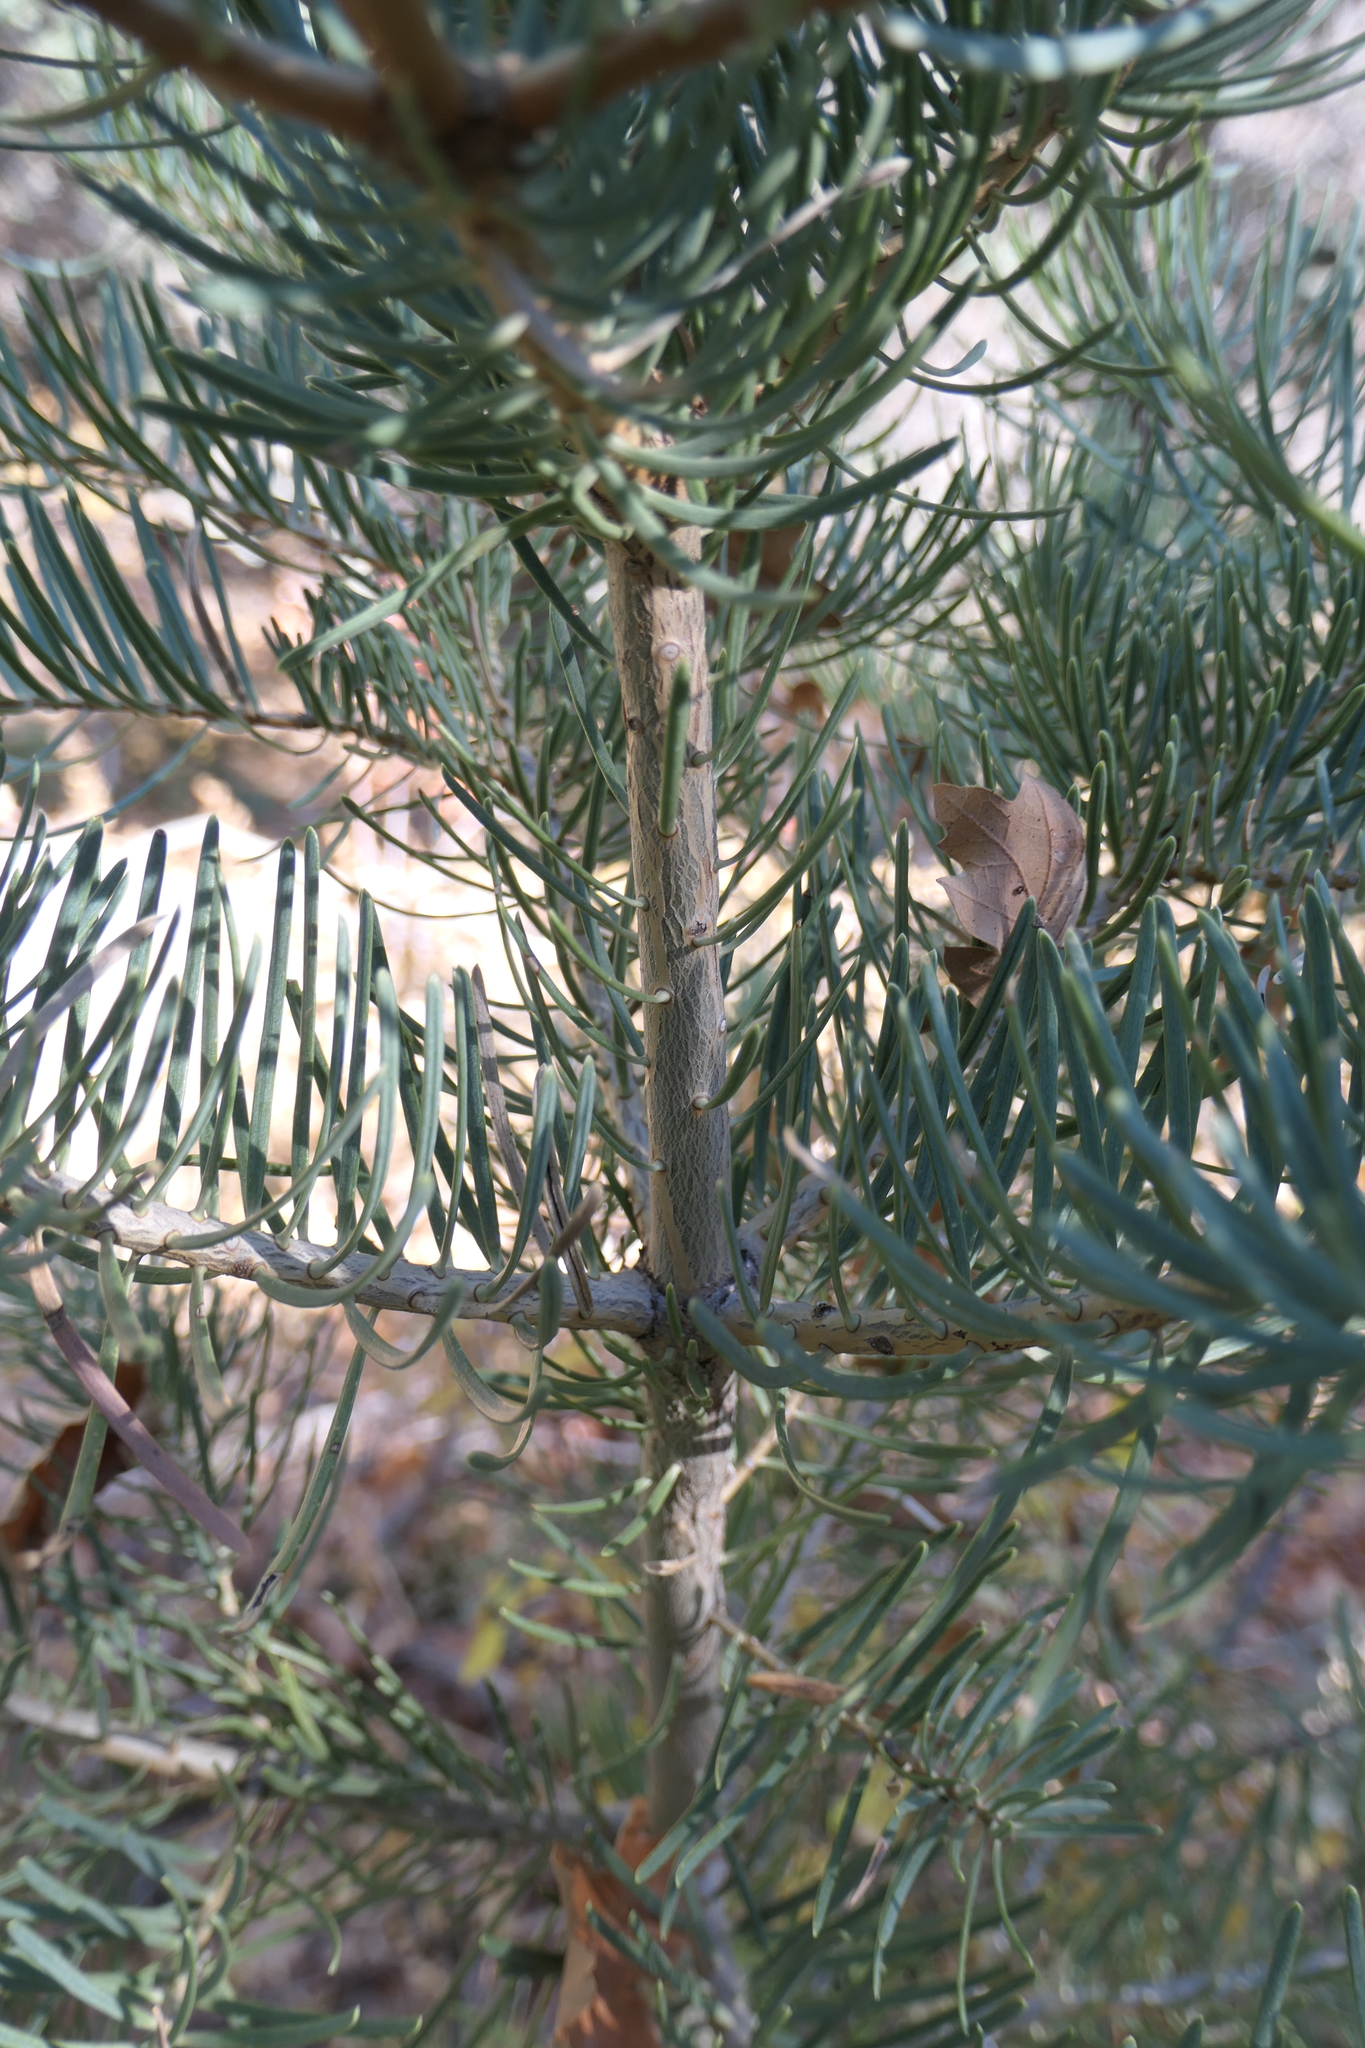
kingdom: Plantae
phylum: Tracheophyta
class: Pinopsida
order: Pinales
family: Pinaceae
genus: Abies
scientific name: Abies concolor
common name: Colorado fir
